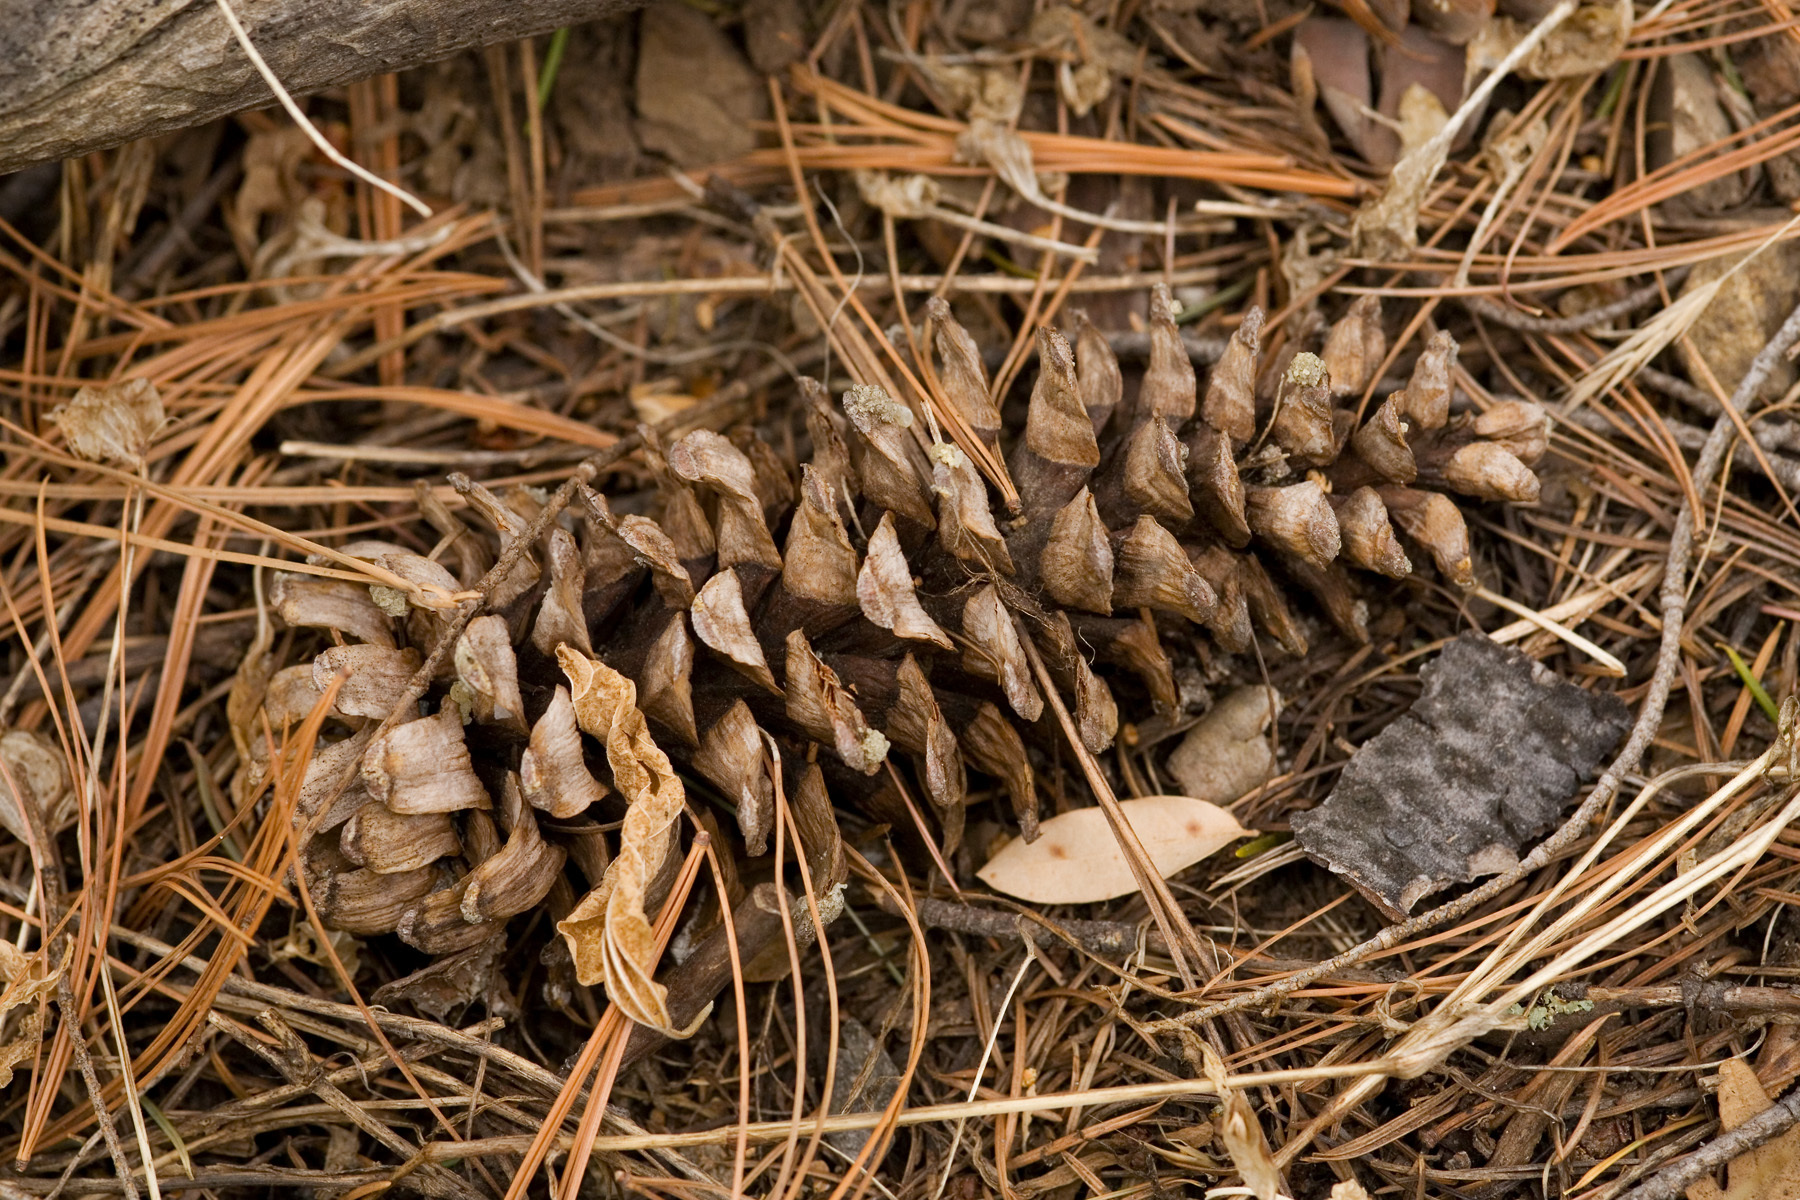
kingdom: Plantae
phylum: Tracheophyta
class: Pinopsida
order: Pinales
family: Pinaceae
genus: Pinus
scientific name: Pinus strobiformis
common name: Southwestern white pine
